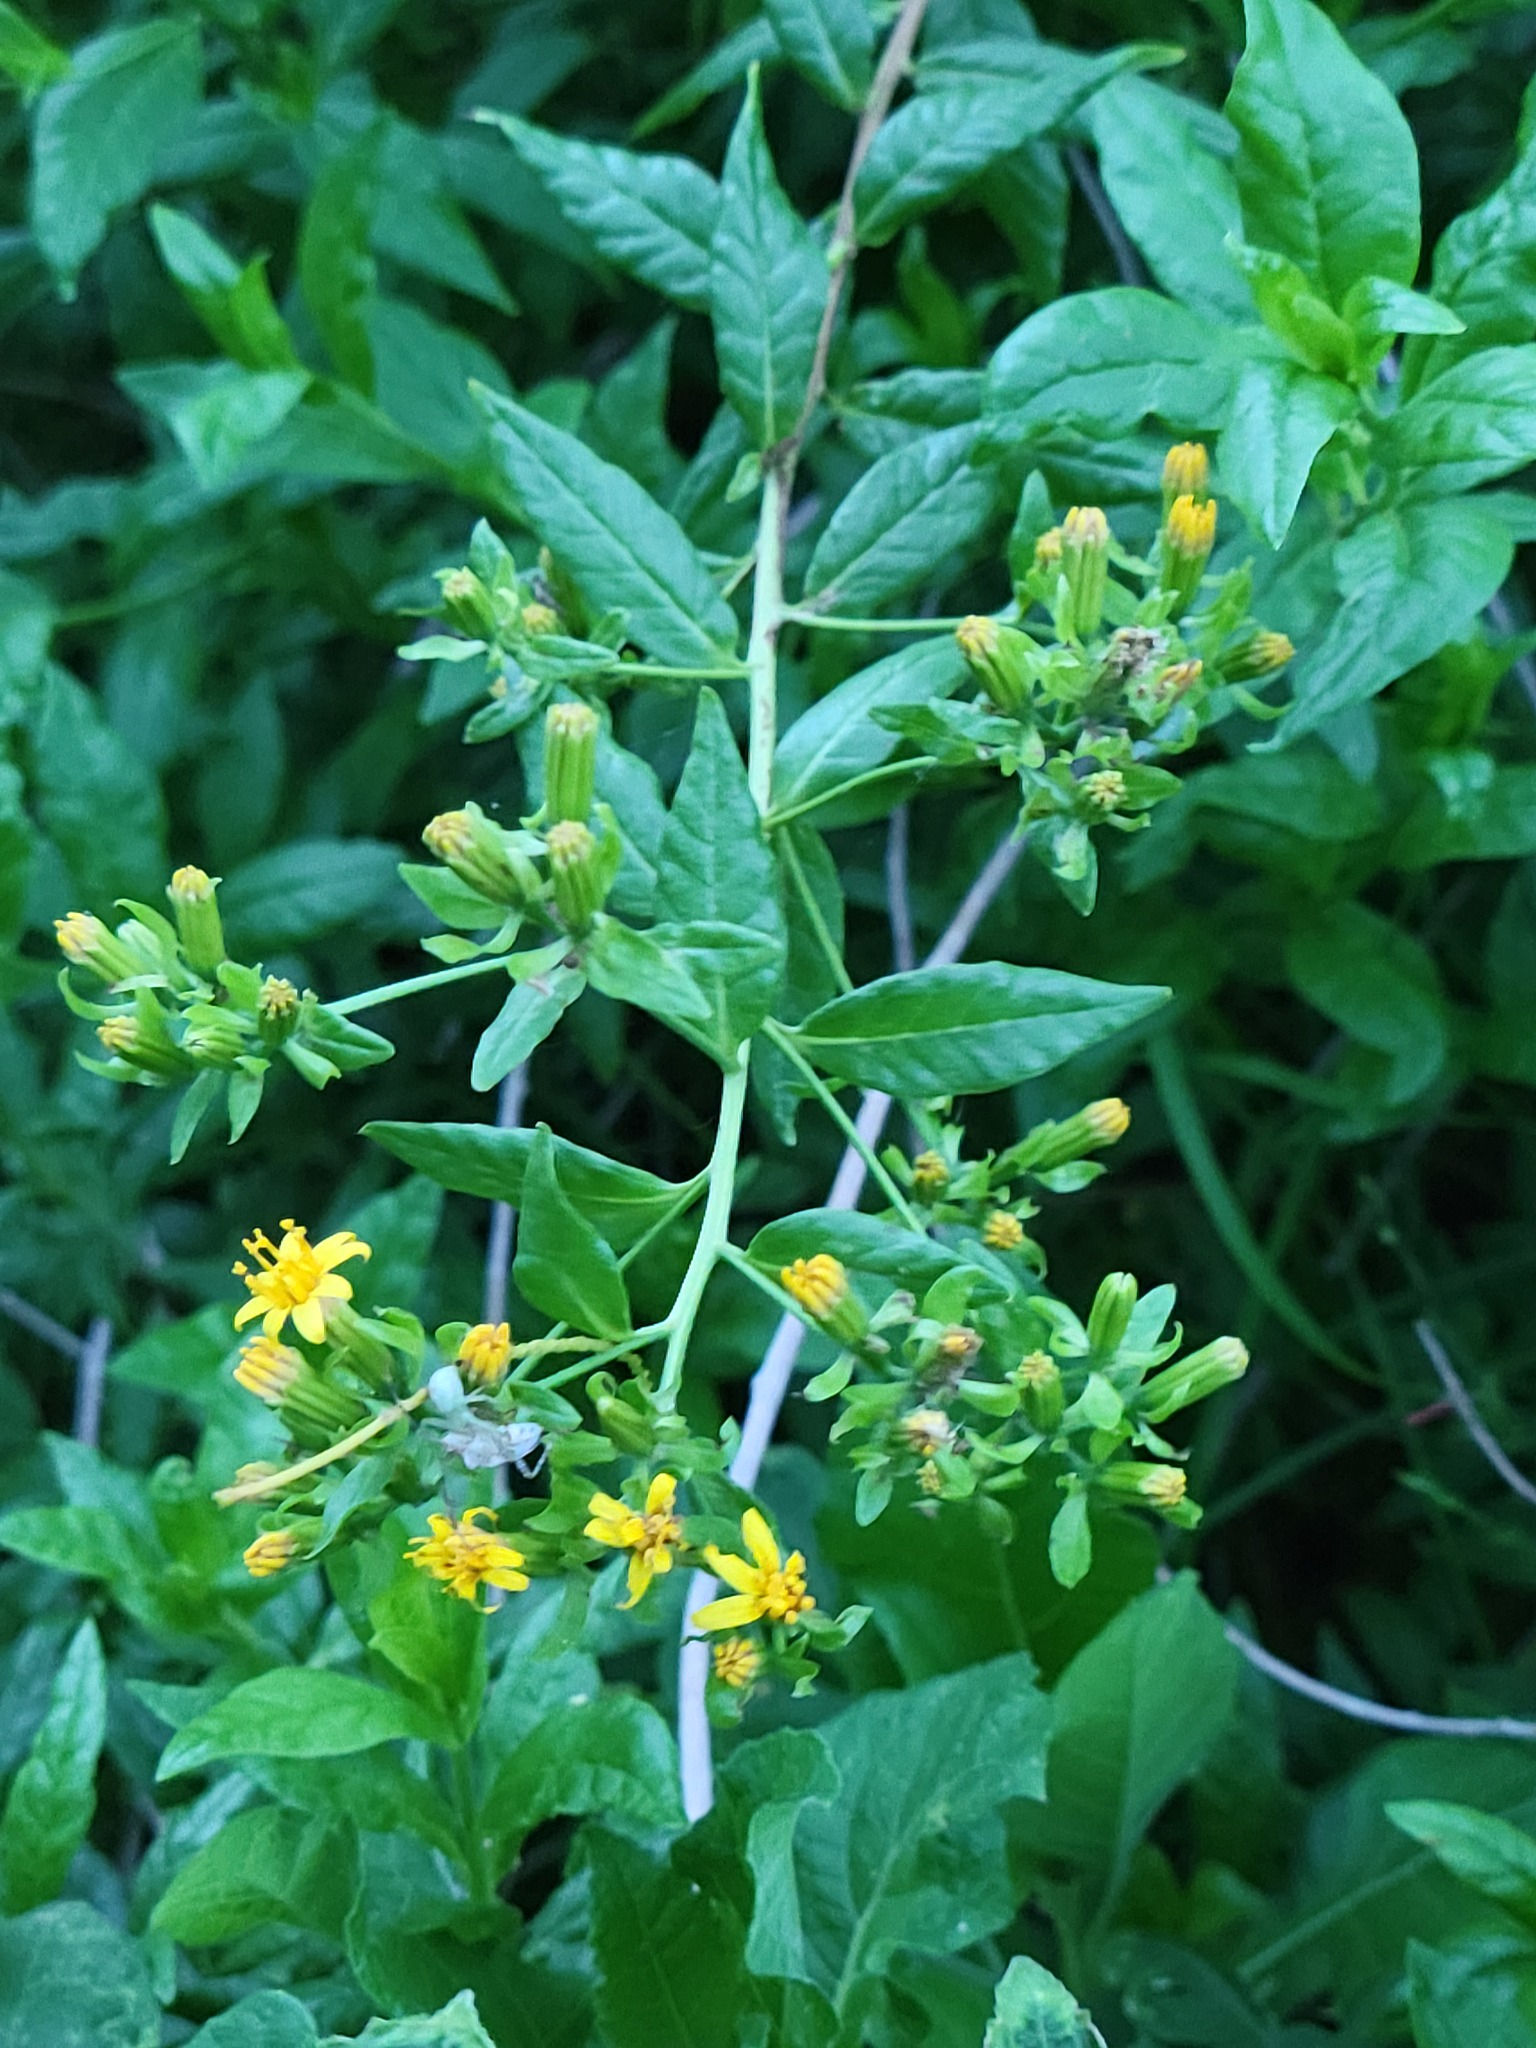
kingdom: Plantae
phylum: Tracheophyta
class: Magnoliopsida
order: Asterales
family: Asteraceae
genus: Trixis
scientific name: Trixis inula
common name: Tropical threefold
